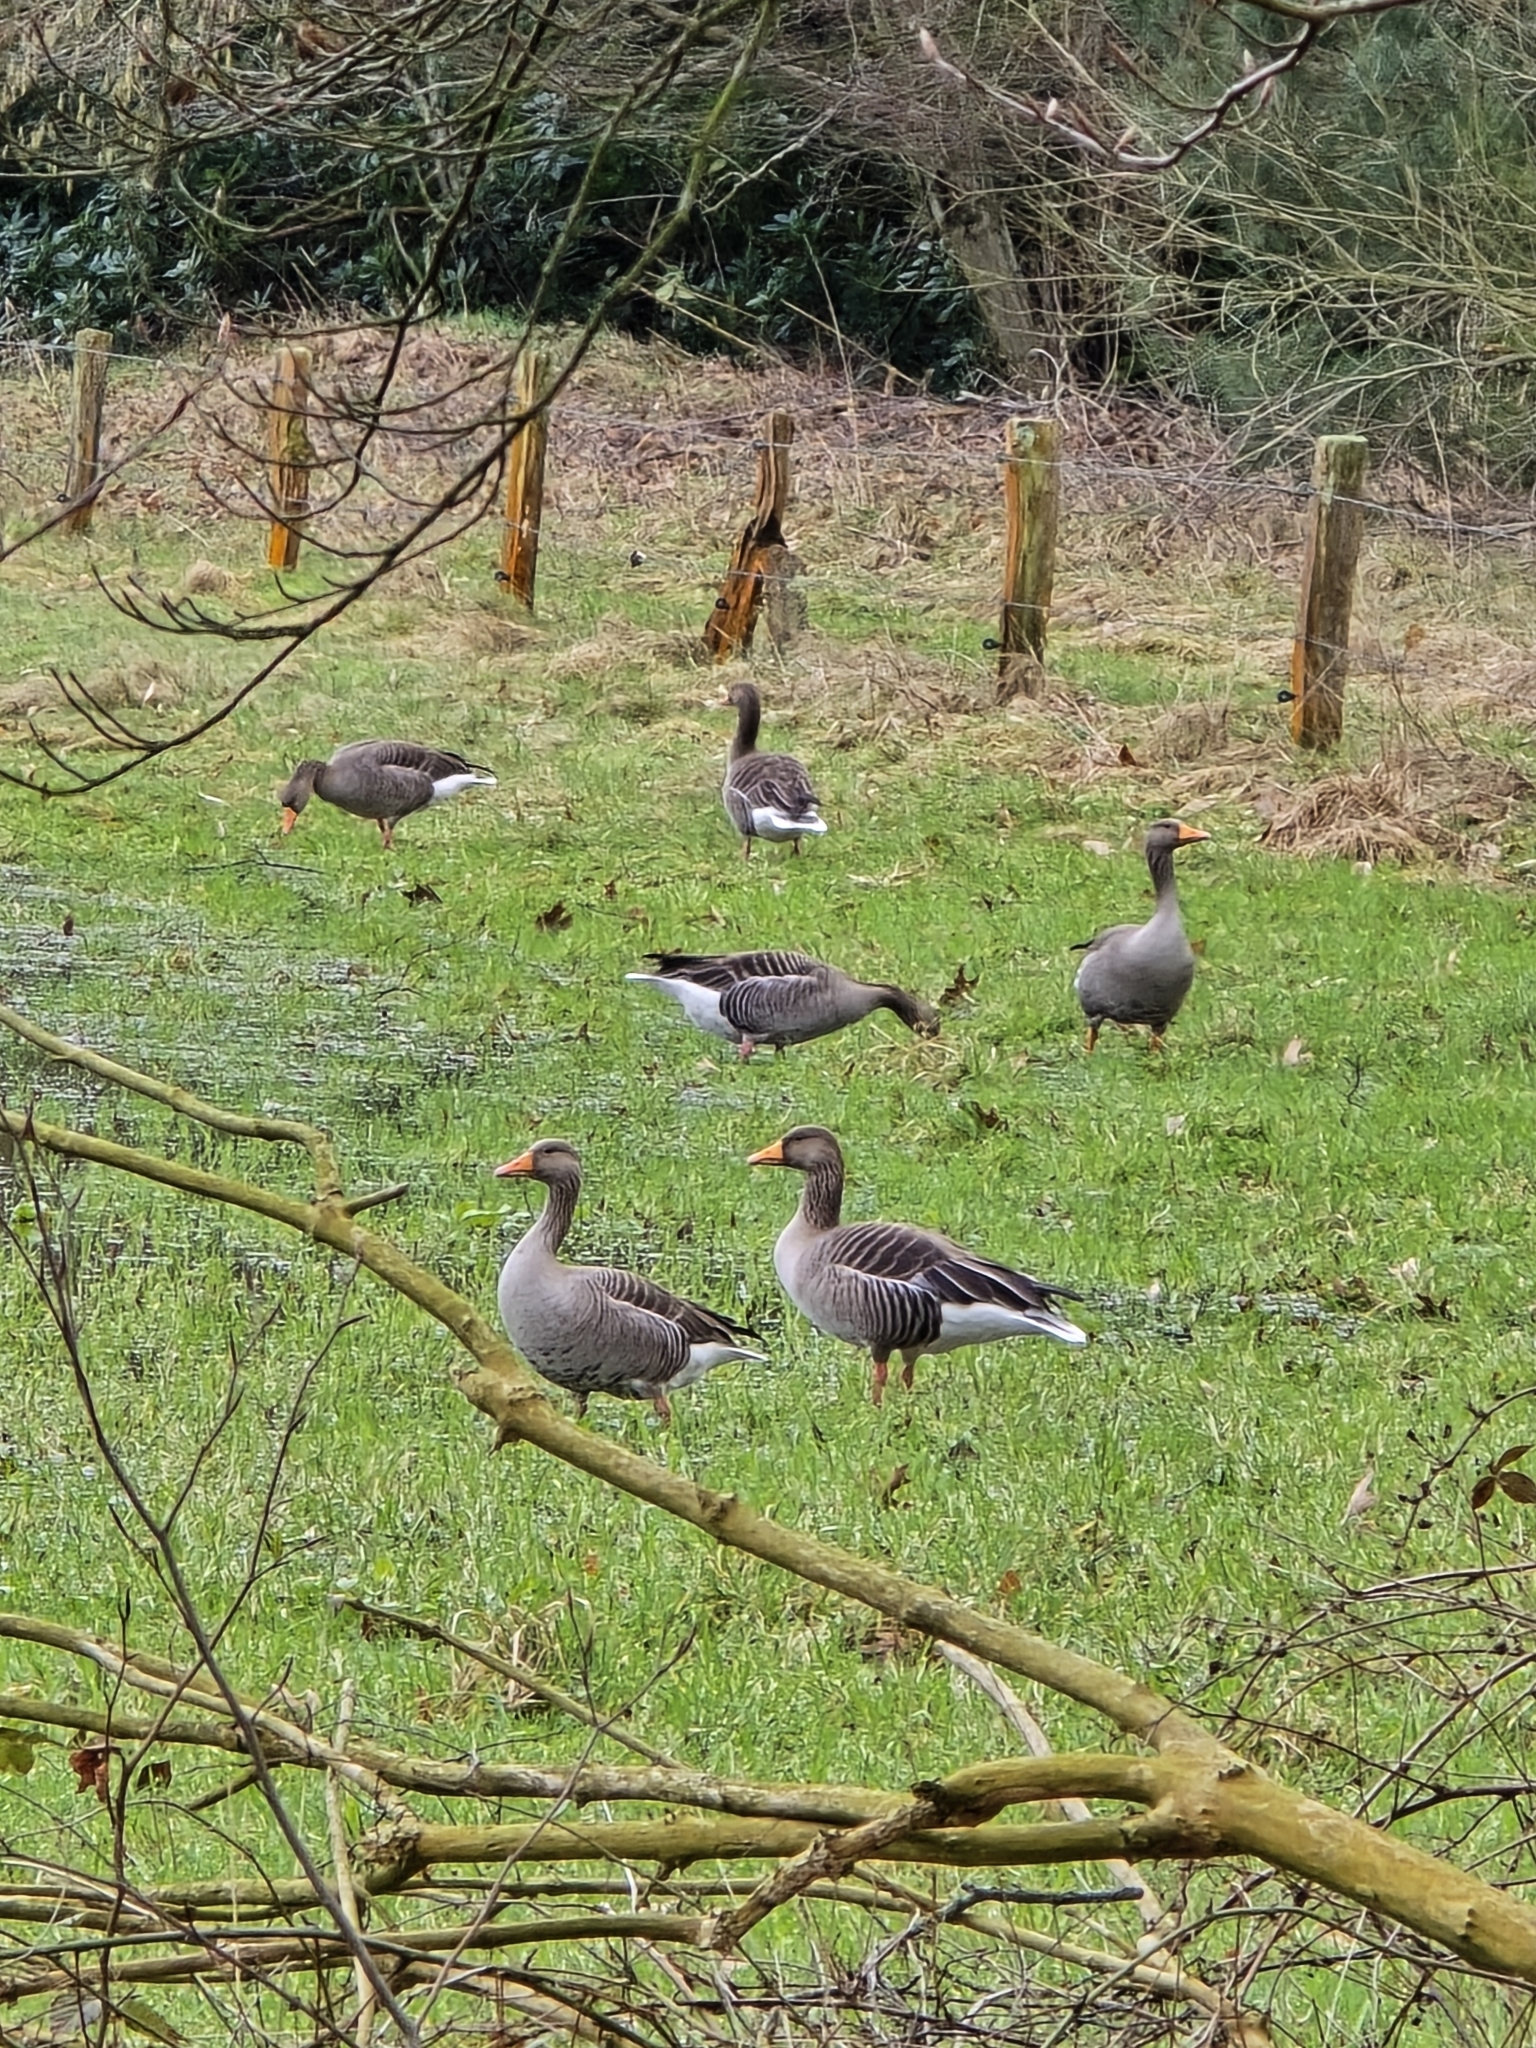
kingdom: Animalia
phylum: Chordata
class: Aves
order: Anseriformes
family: Anatidae
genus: Anser
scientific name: Anser anser
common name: Greylag goose
